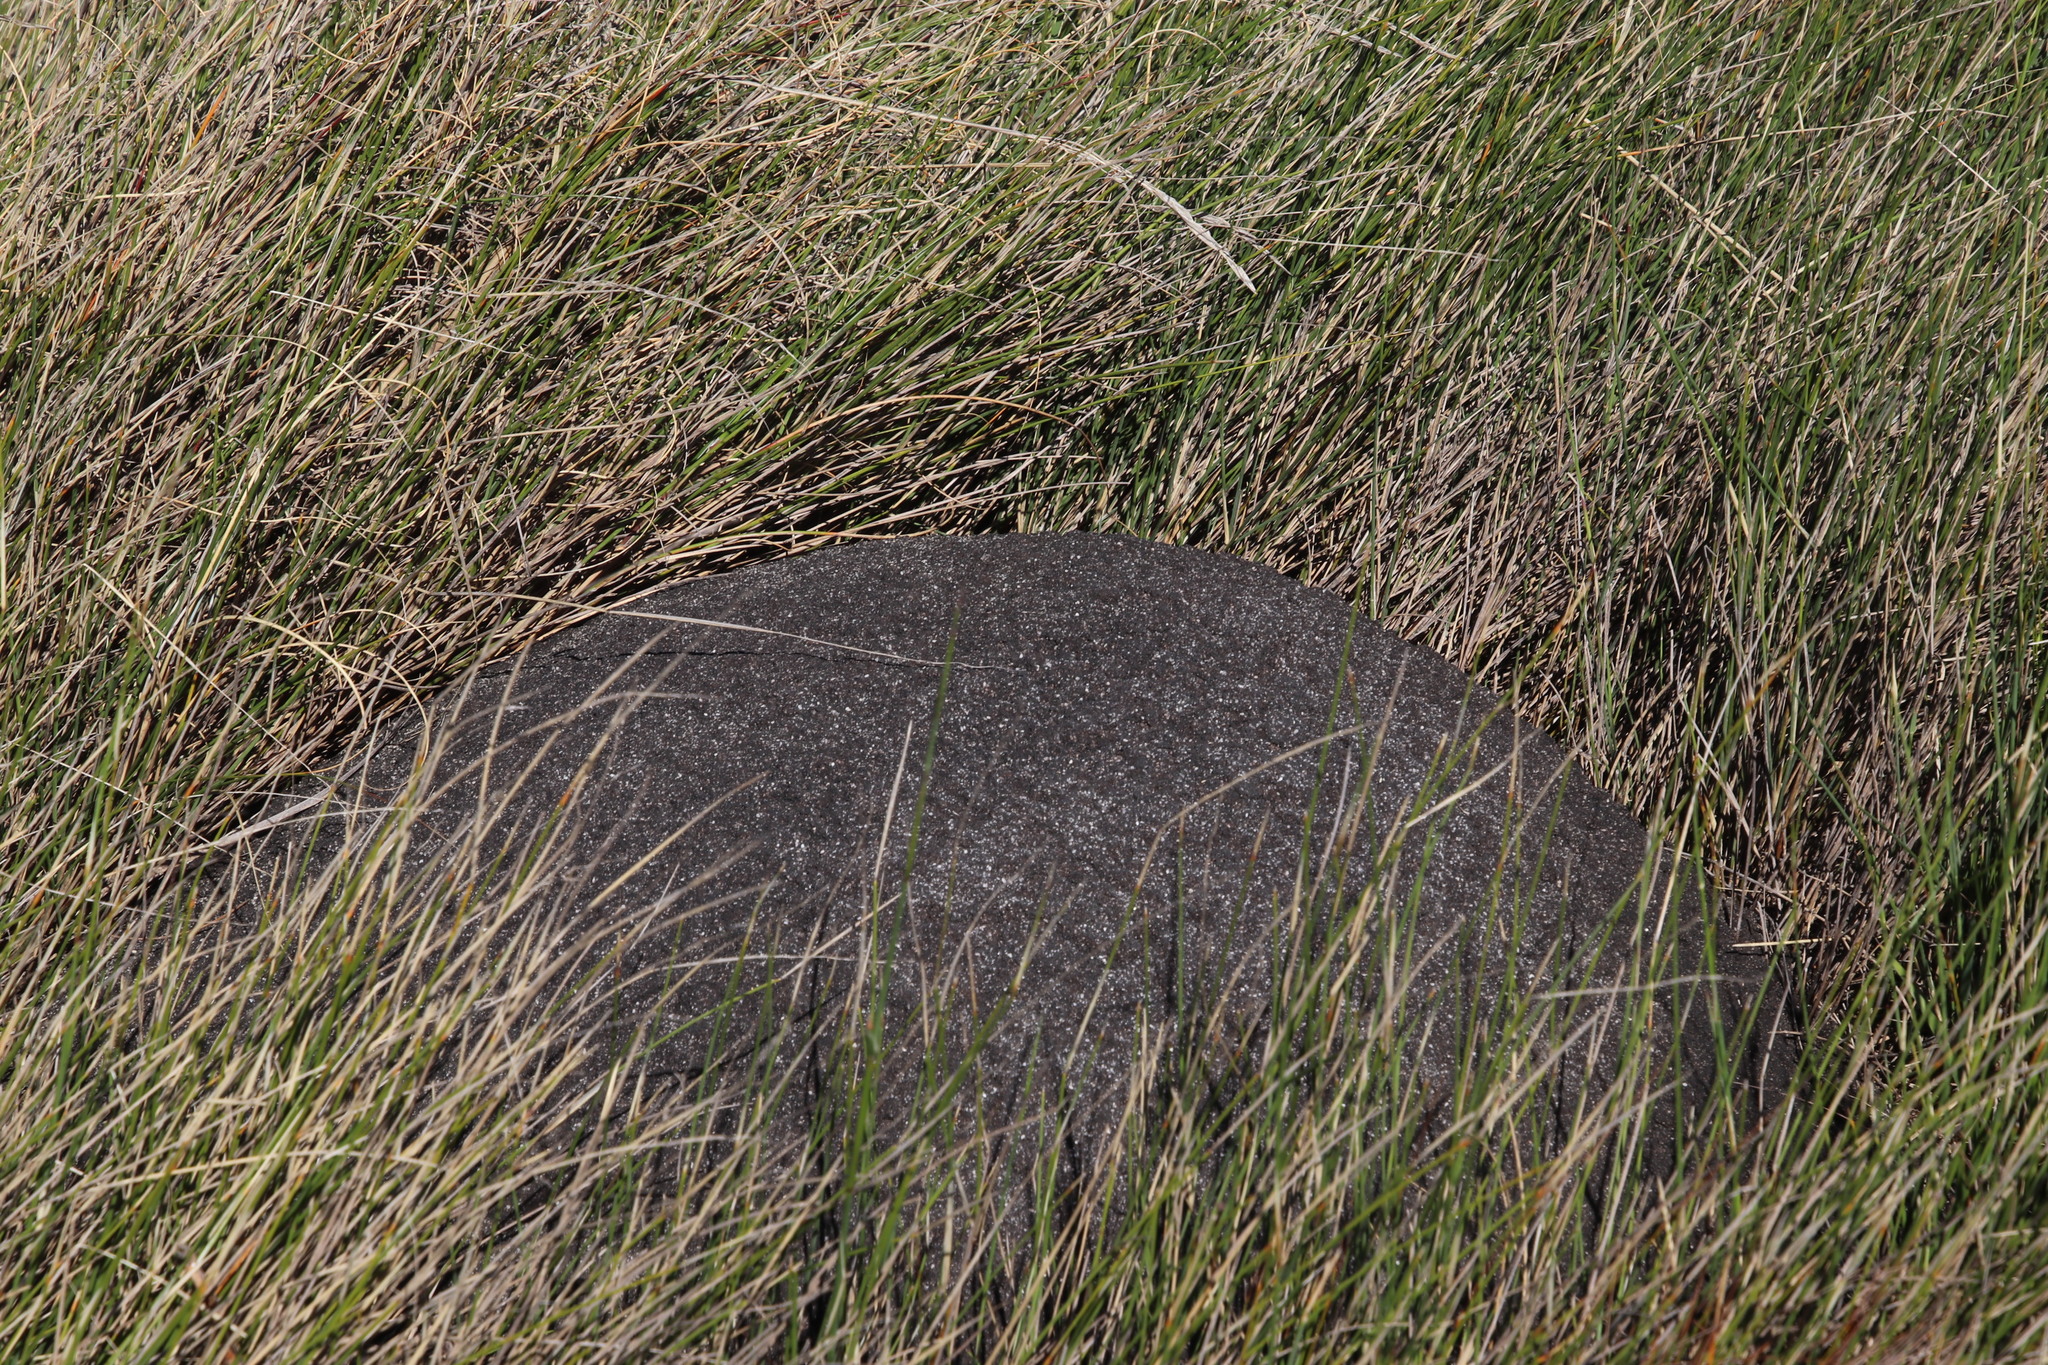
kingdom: Animalia
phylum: Arthropoda
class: Insecta
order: Blattodea
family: Termitidae
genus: Amitermes
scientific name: Amitermes hastatus
